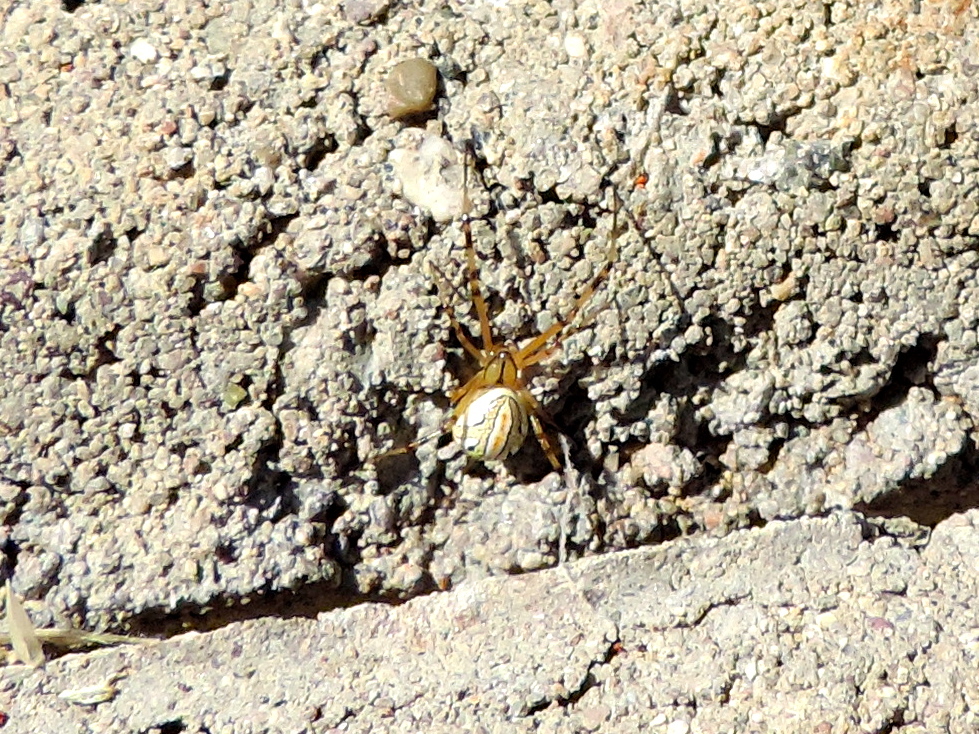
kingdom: Animalia
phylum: Arthropoda
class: Arachnida
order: Araneae
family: Theridiidae
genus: Latrodectus
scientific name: Latrodectus geometricus
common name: Brown widow spider
